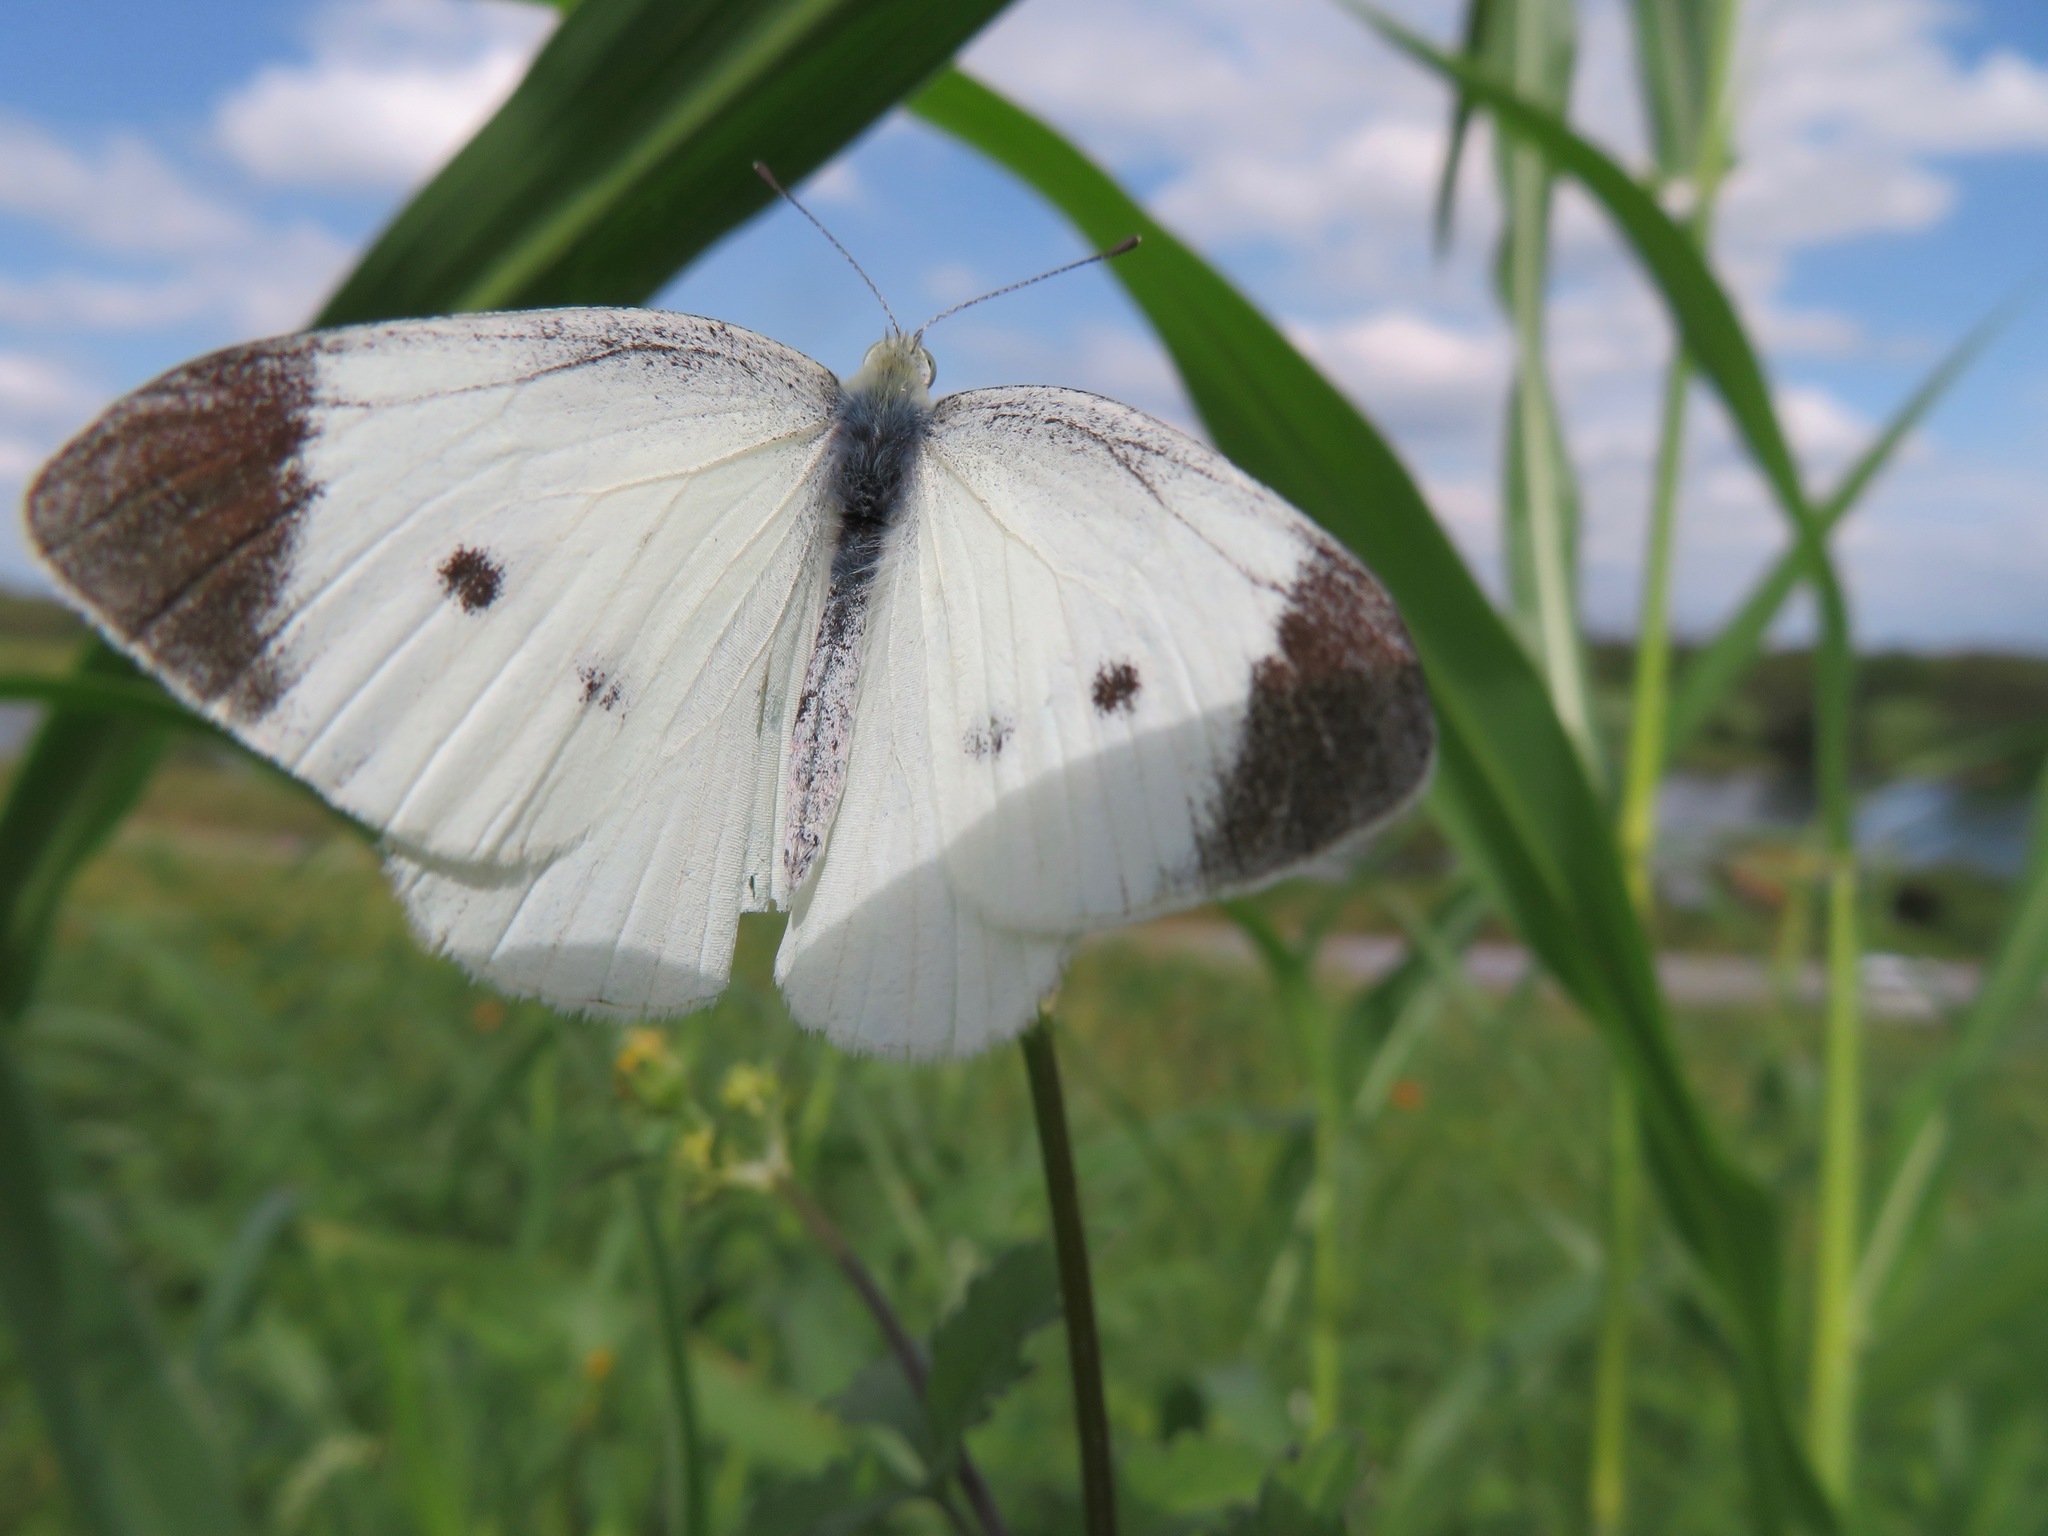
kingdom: Animalia
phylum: Arthropoda
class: Insecta
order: Lepidoptera
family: Pieridae
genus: Pieris
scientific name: Pieris rapae
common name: Small white
